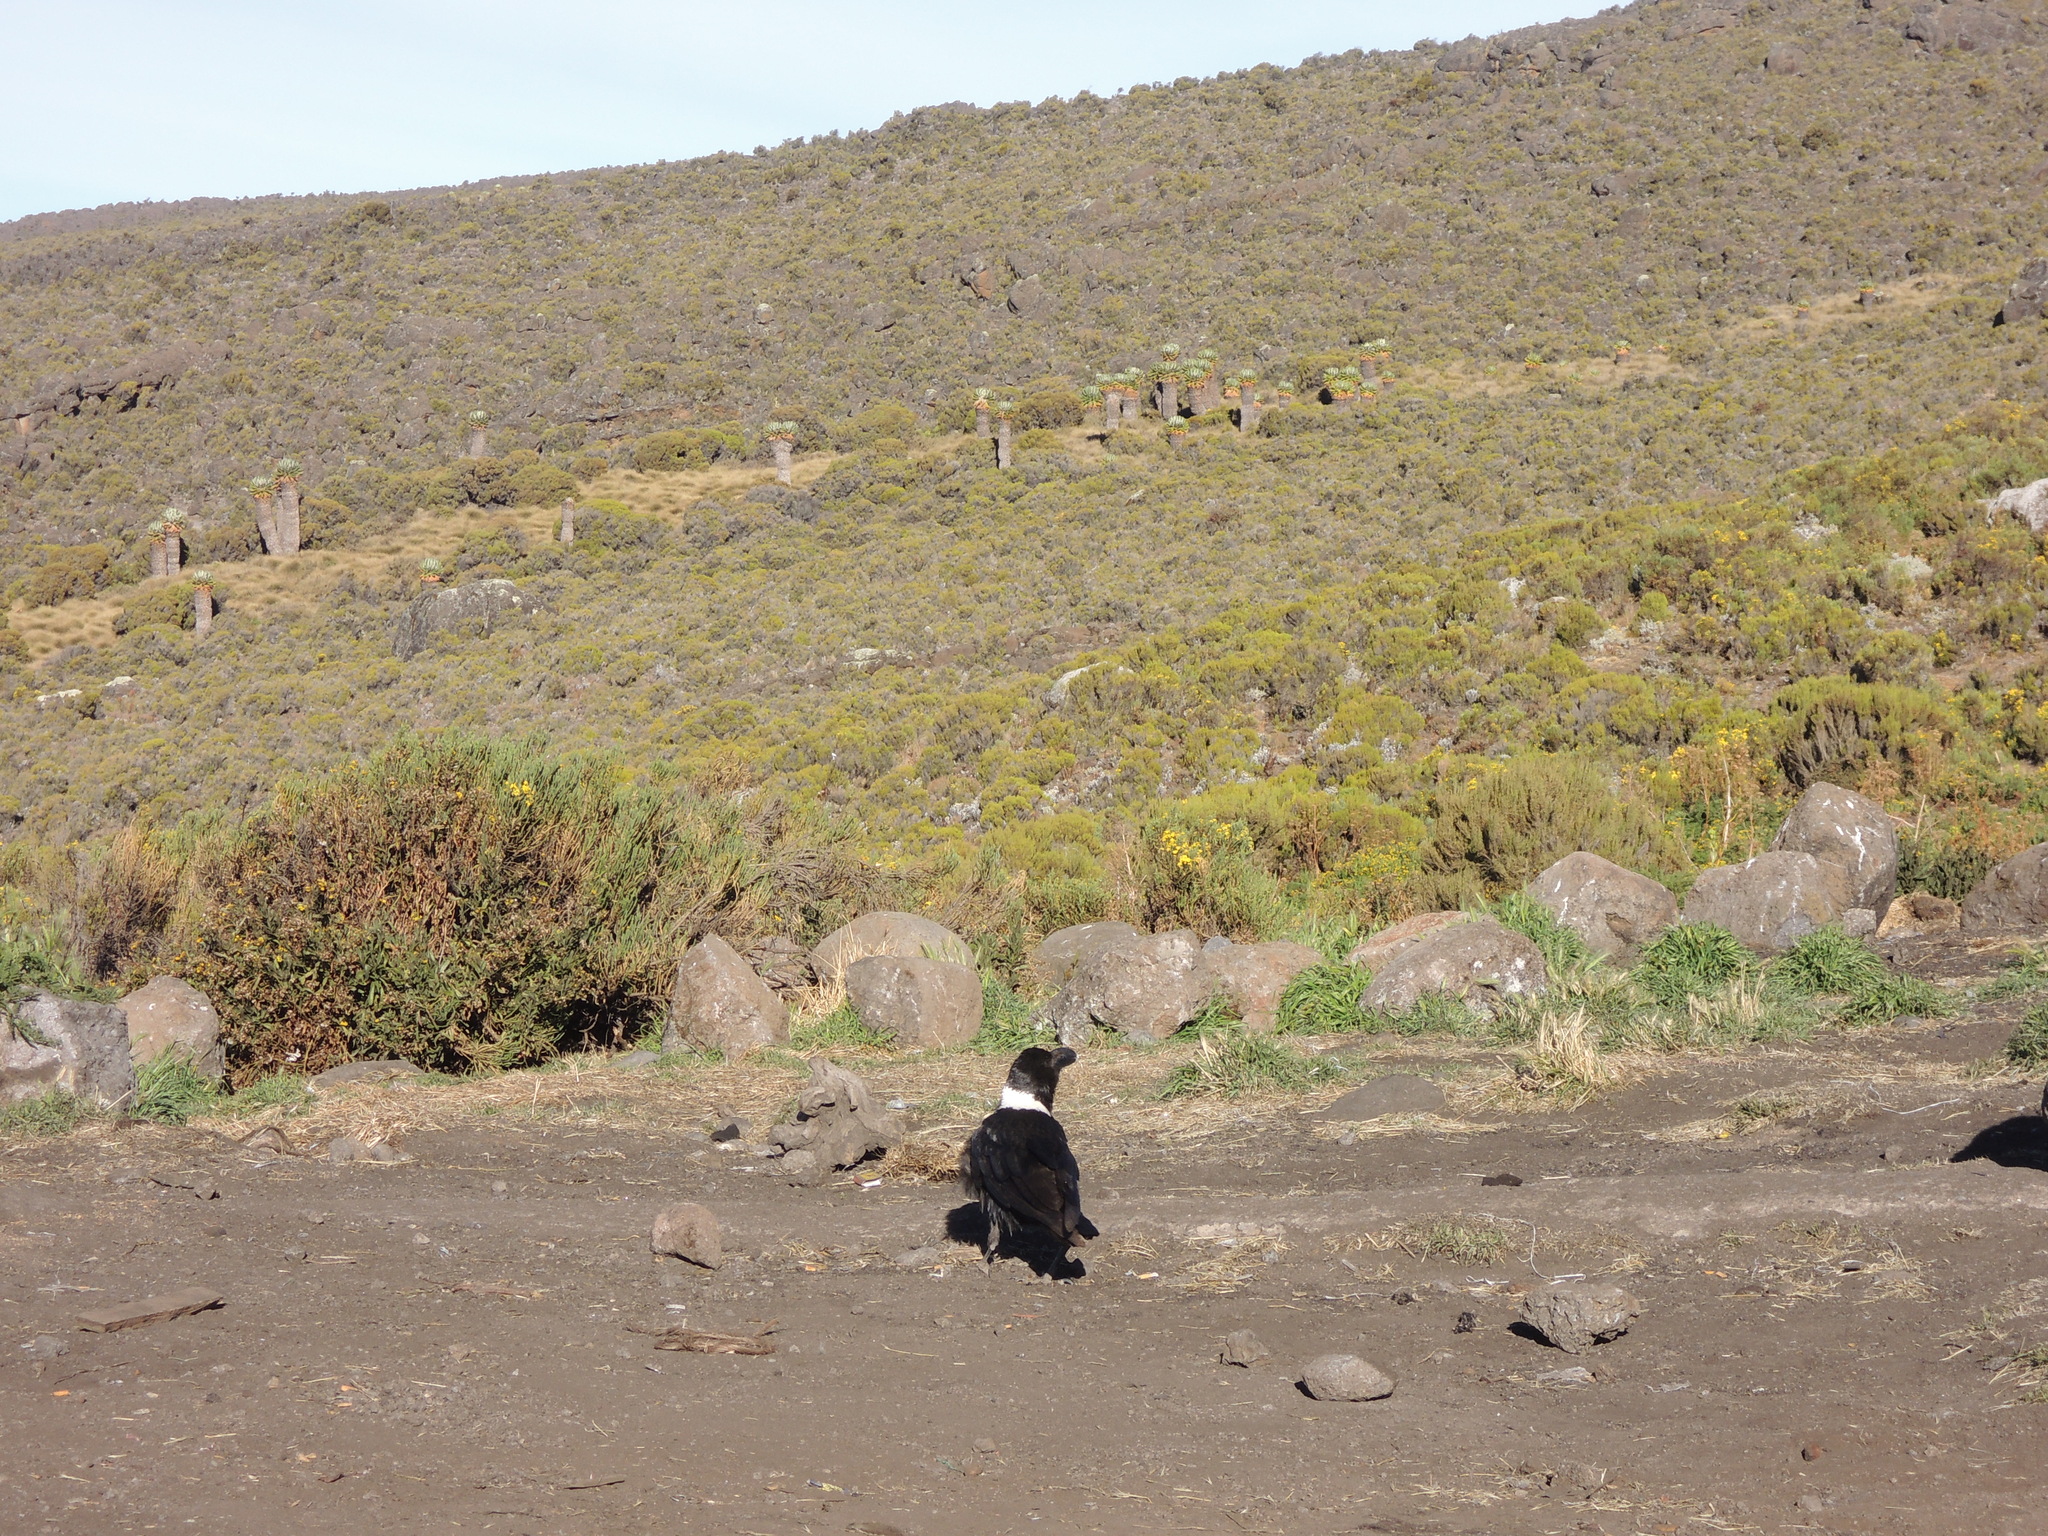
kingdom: Animalia
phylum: Chordata
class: Aves
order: Passeriformes
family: Corvidae
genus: Corvus
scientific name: Corvus albicollis
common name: White-necked raven
